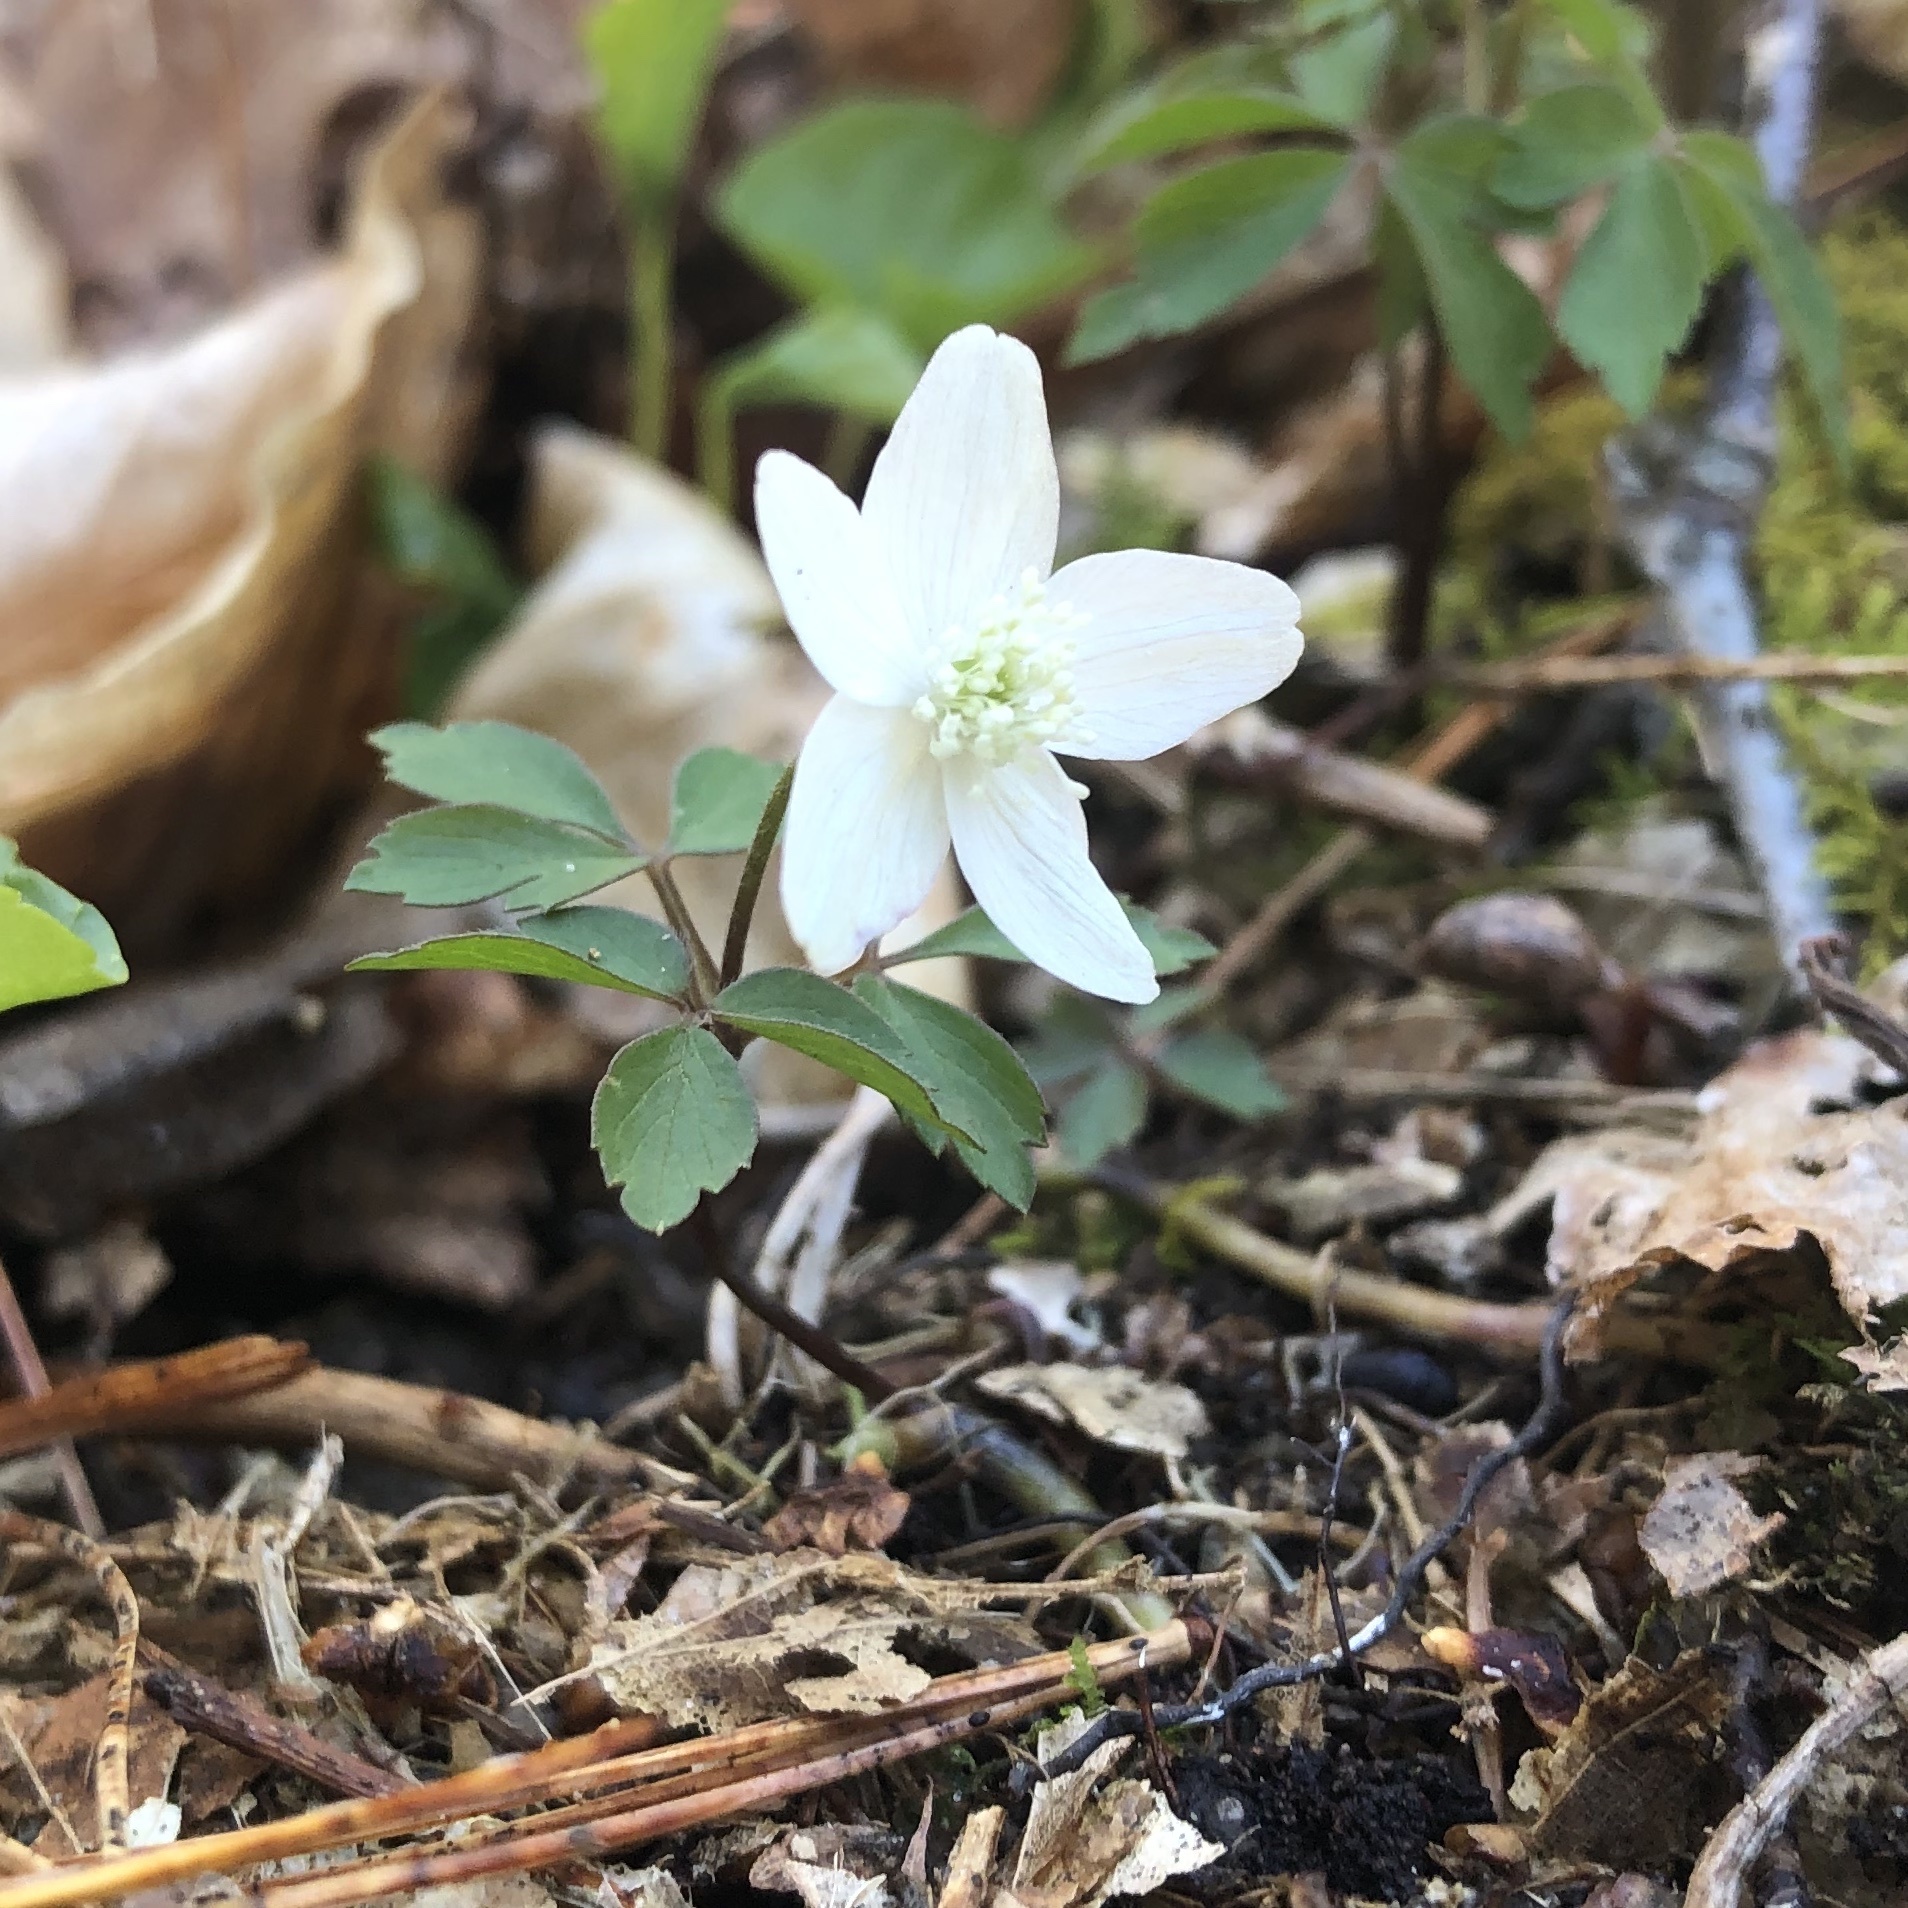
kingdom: Plantae
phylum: Tracheophyta
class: Magnoliopsida
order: Ranunculales
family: Ranunculaceae
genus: Anemone
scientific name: Anemone quinquefolia
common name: Wood anemone
